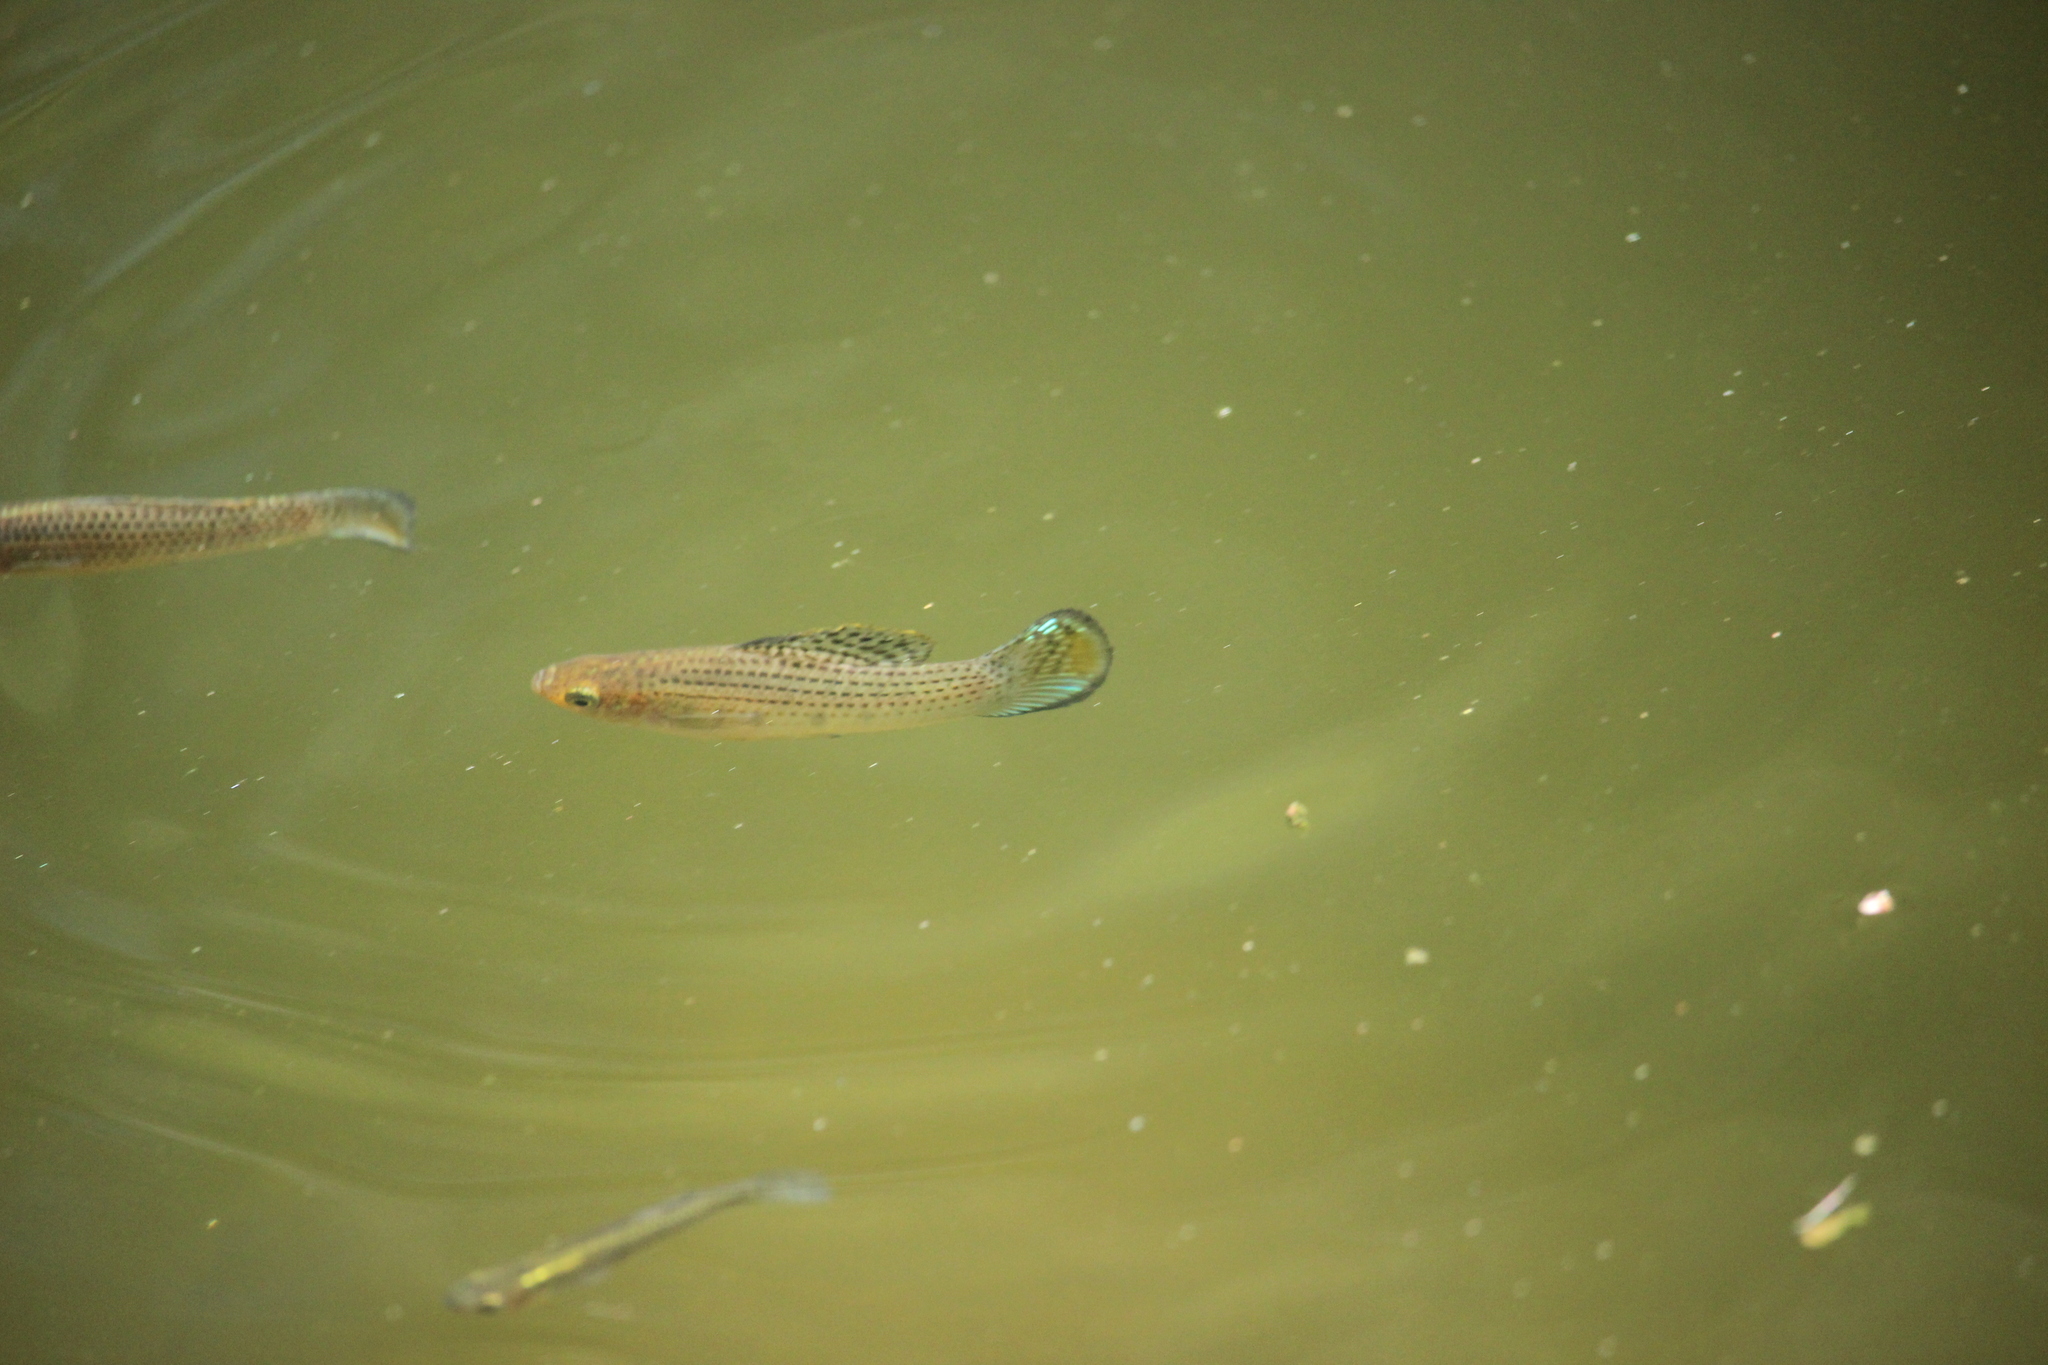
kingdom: Animalia
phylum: Chordata
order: Cyprinodontiformes
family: Poeciliidae
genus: Poecilia
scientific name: Poecilia latipinna
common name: Sailfin molly
